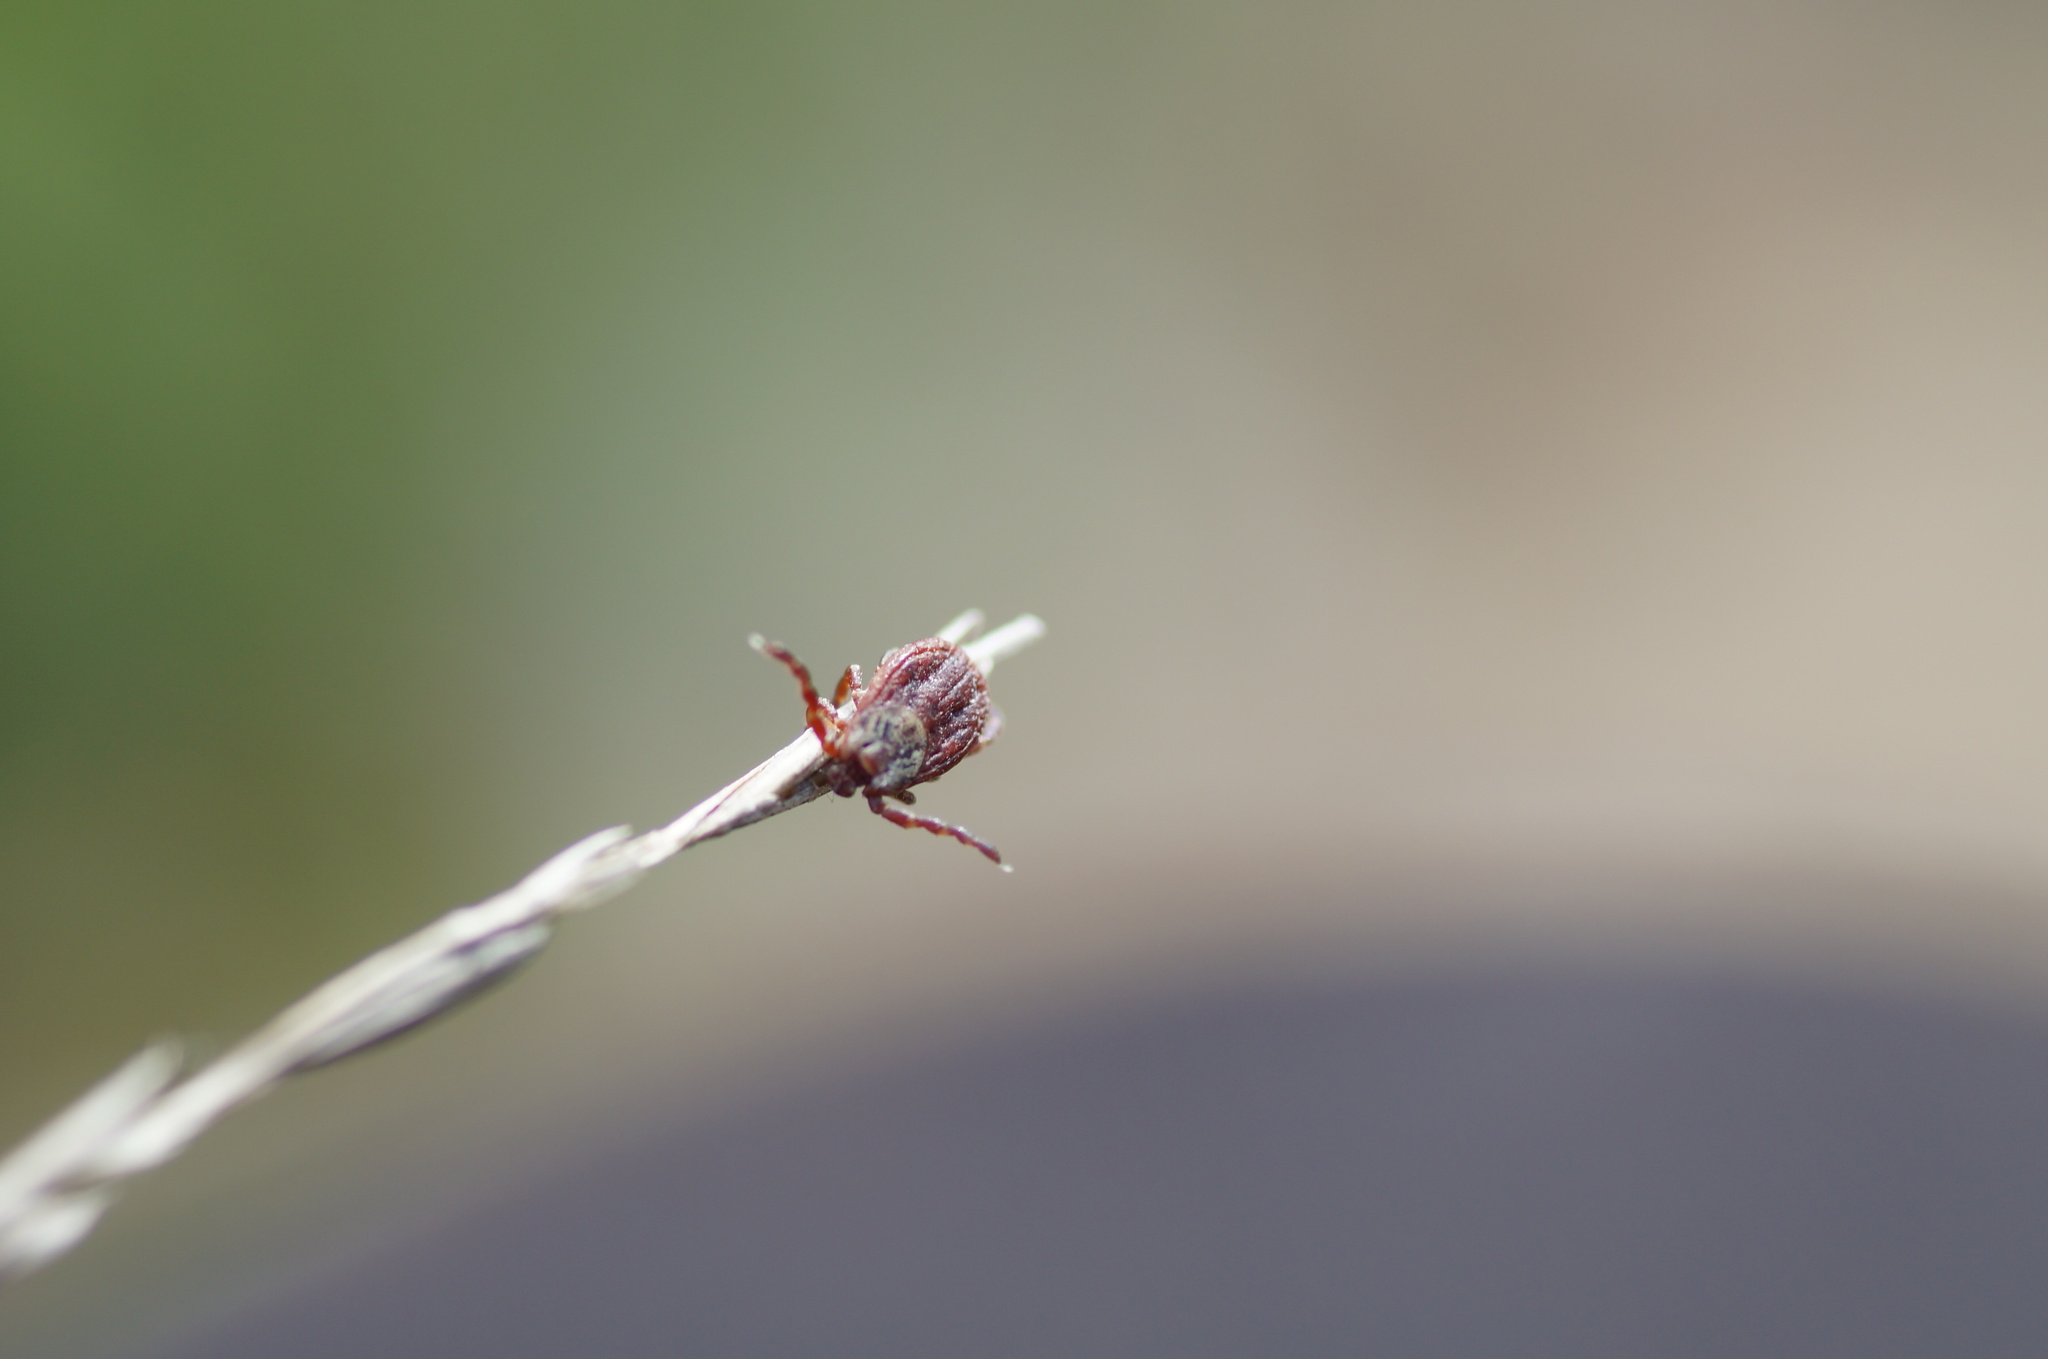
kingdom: Animalia
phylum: Arthropoda
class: Arachnida
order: Ixodida
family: Ixodidae
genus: Dermacentor
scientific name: Dermacentor reticulatus
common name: Ornate cow tick
